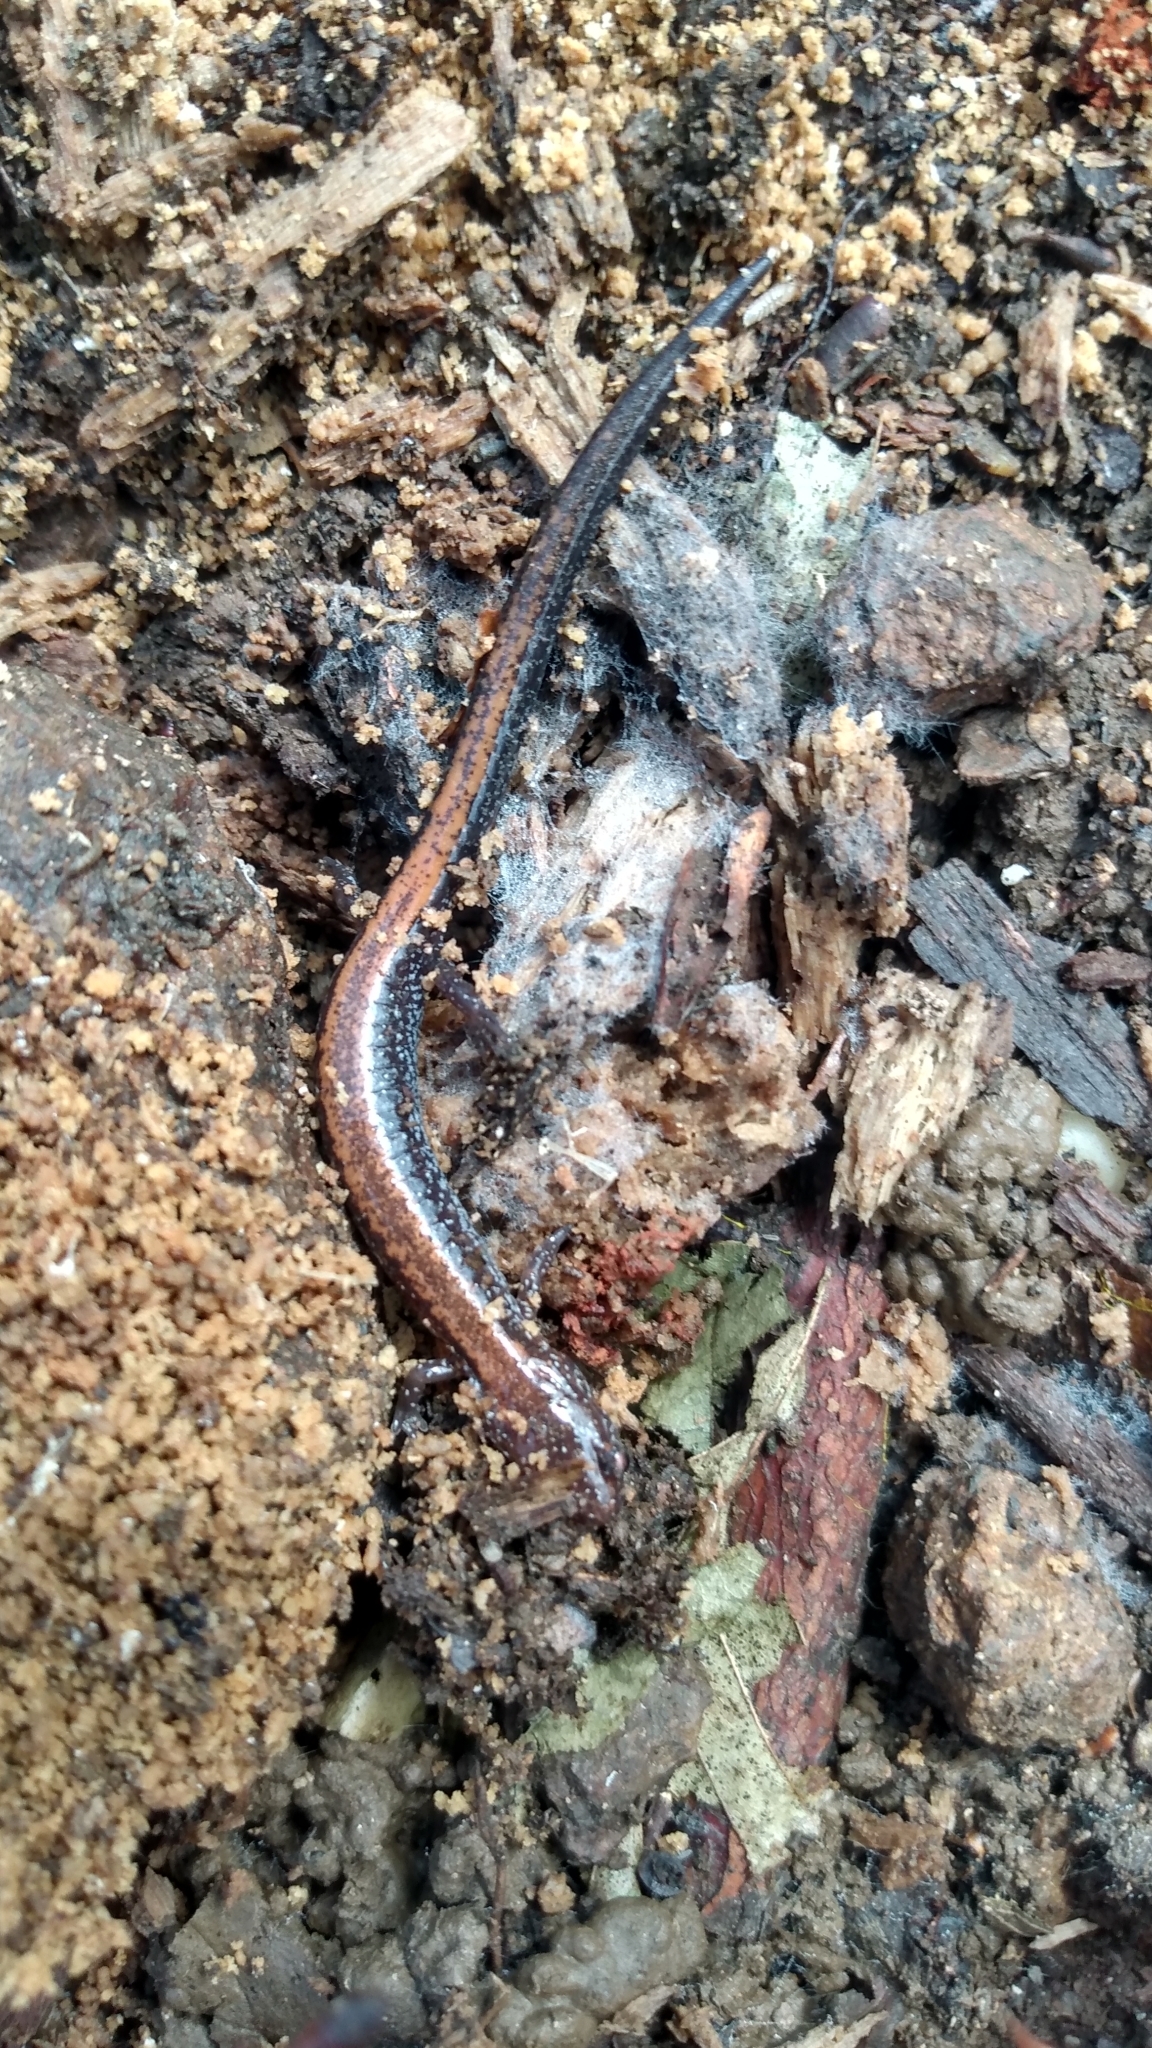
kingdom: Animalia
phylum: Chordata
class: Amphibia
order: Caudata
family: Plethodontidae
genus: Plethodon
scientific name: Plethodon cinereus
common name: Redback salamander
